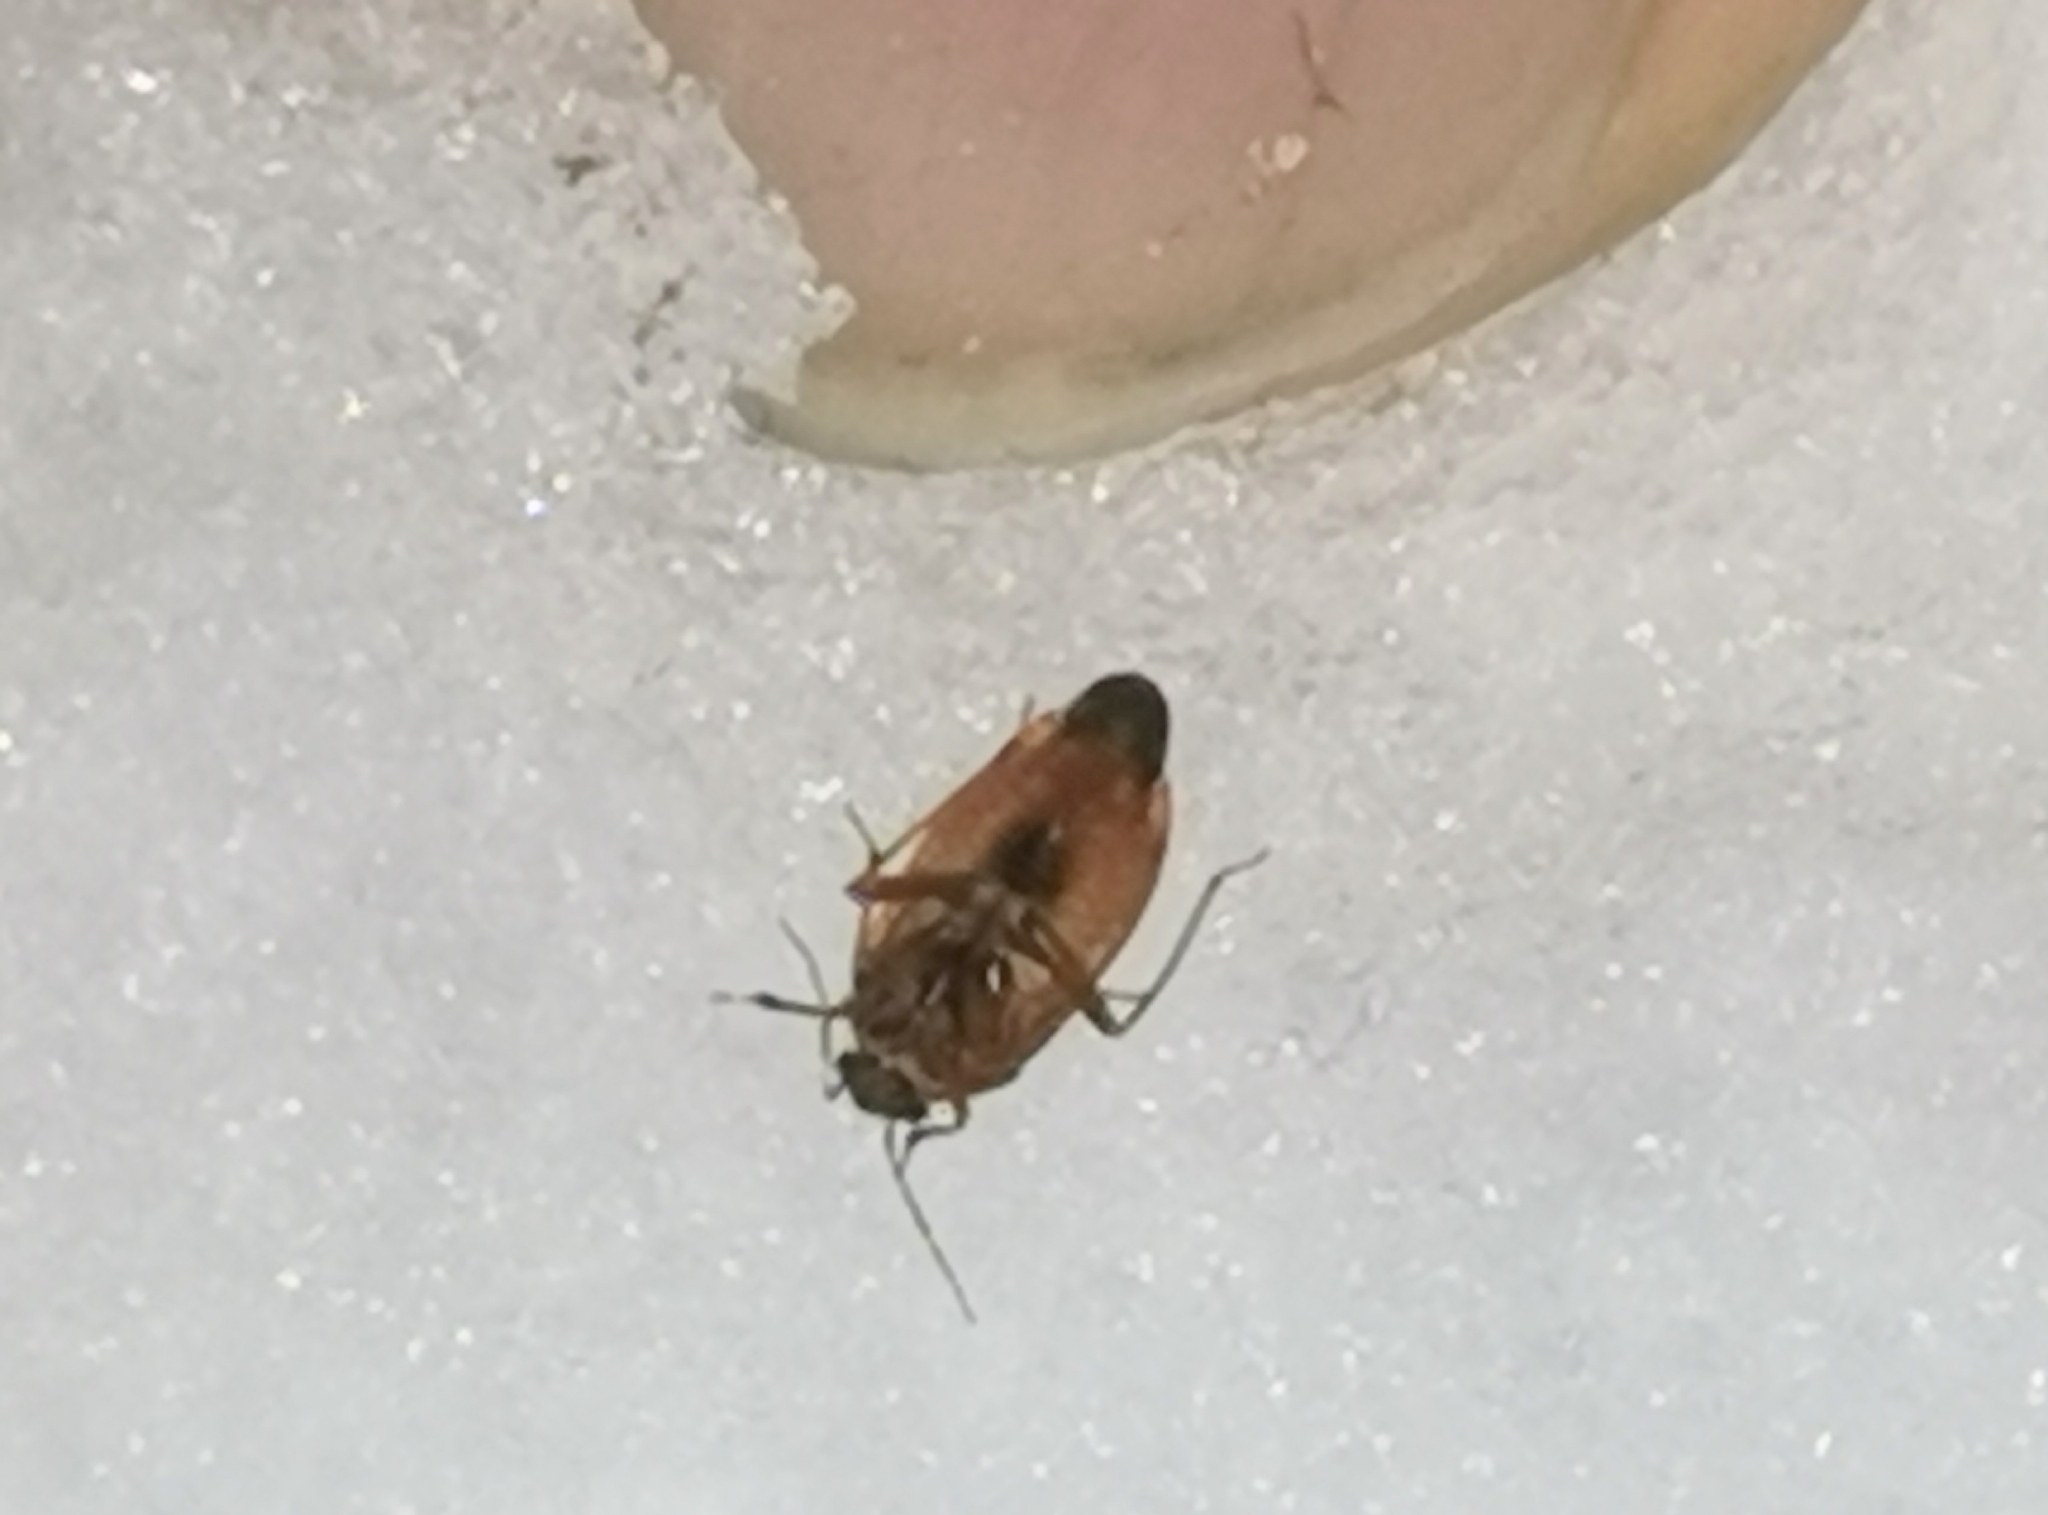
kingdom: Animalia
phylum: Arthropoda
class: Insecta
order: Hemiptera
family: Miridae
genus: Agnocoris
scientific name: Agnocoris rubicundus
